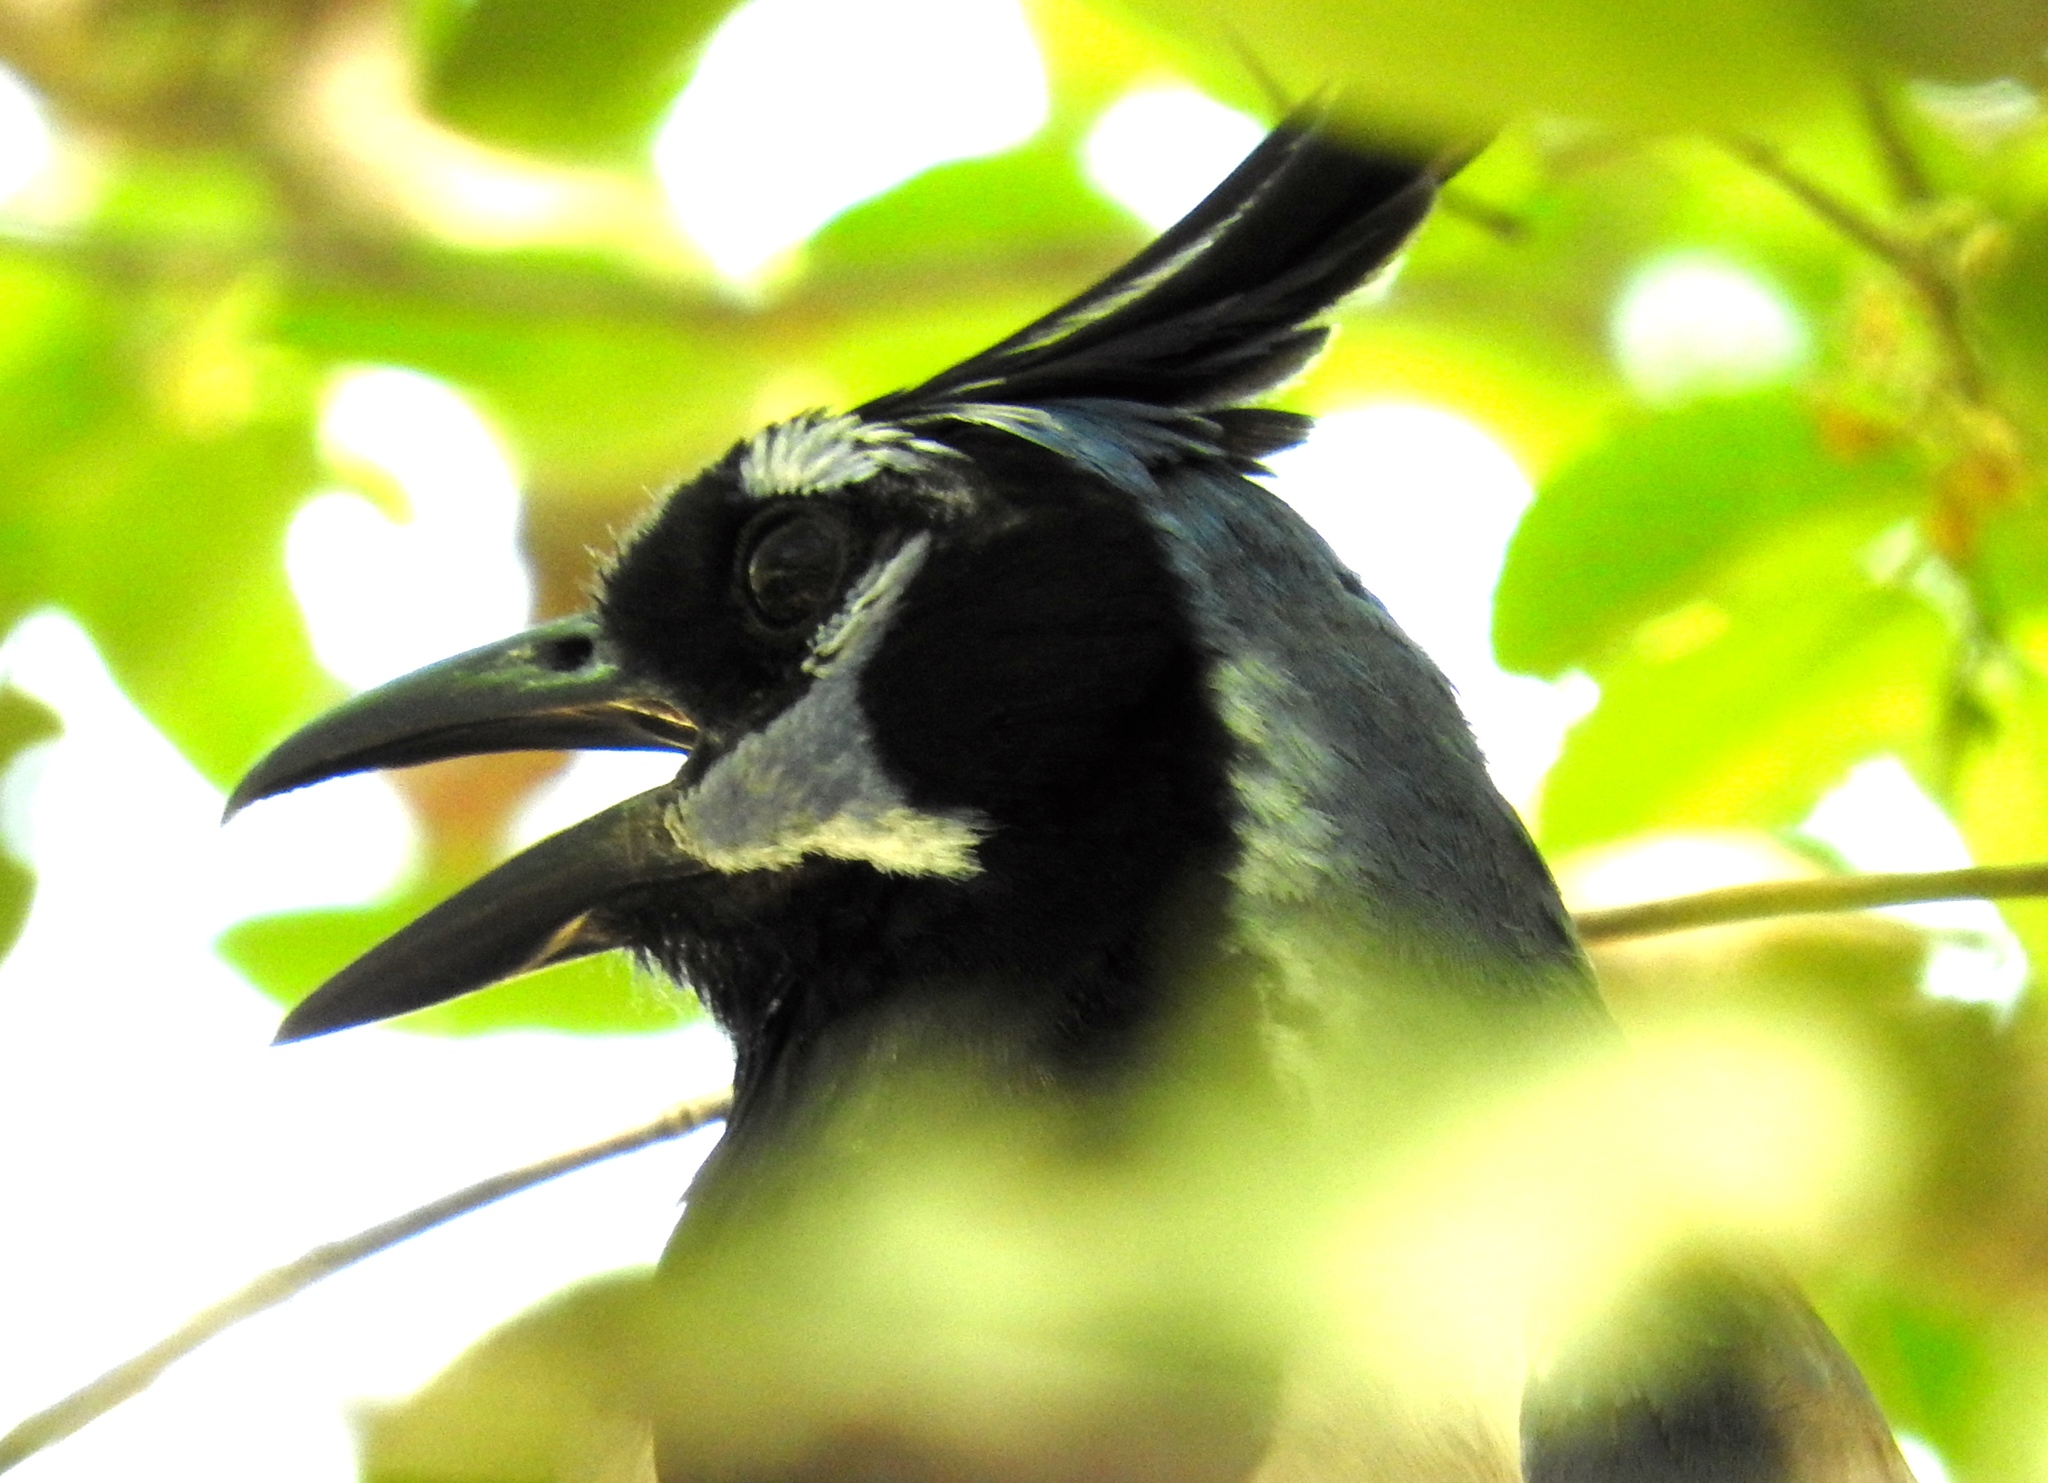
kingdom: Animalia
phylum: Chordata
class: Aves
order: Passeriformes
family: Corvidae
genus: Calocitta
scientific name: Calocitta colliei
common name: Black-throated magpie-jay
